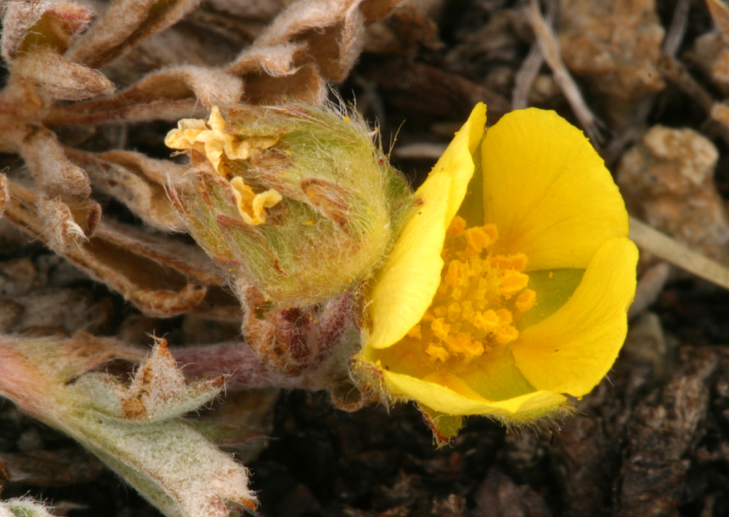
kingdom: Plantae
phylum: Tracheophyta
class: Magnoliopsida
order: Rosales
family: Rosaceae
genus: Potentilla
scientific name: Potentilla morefieldii
